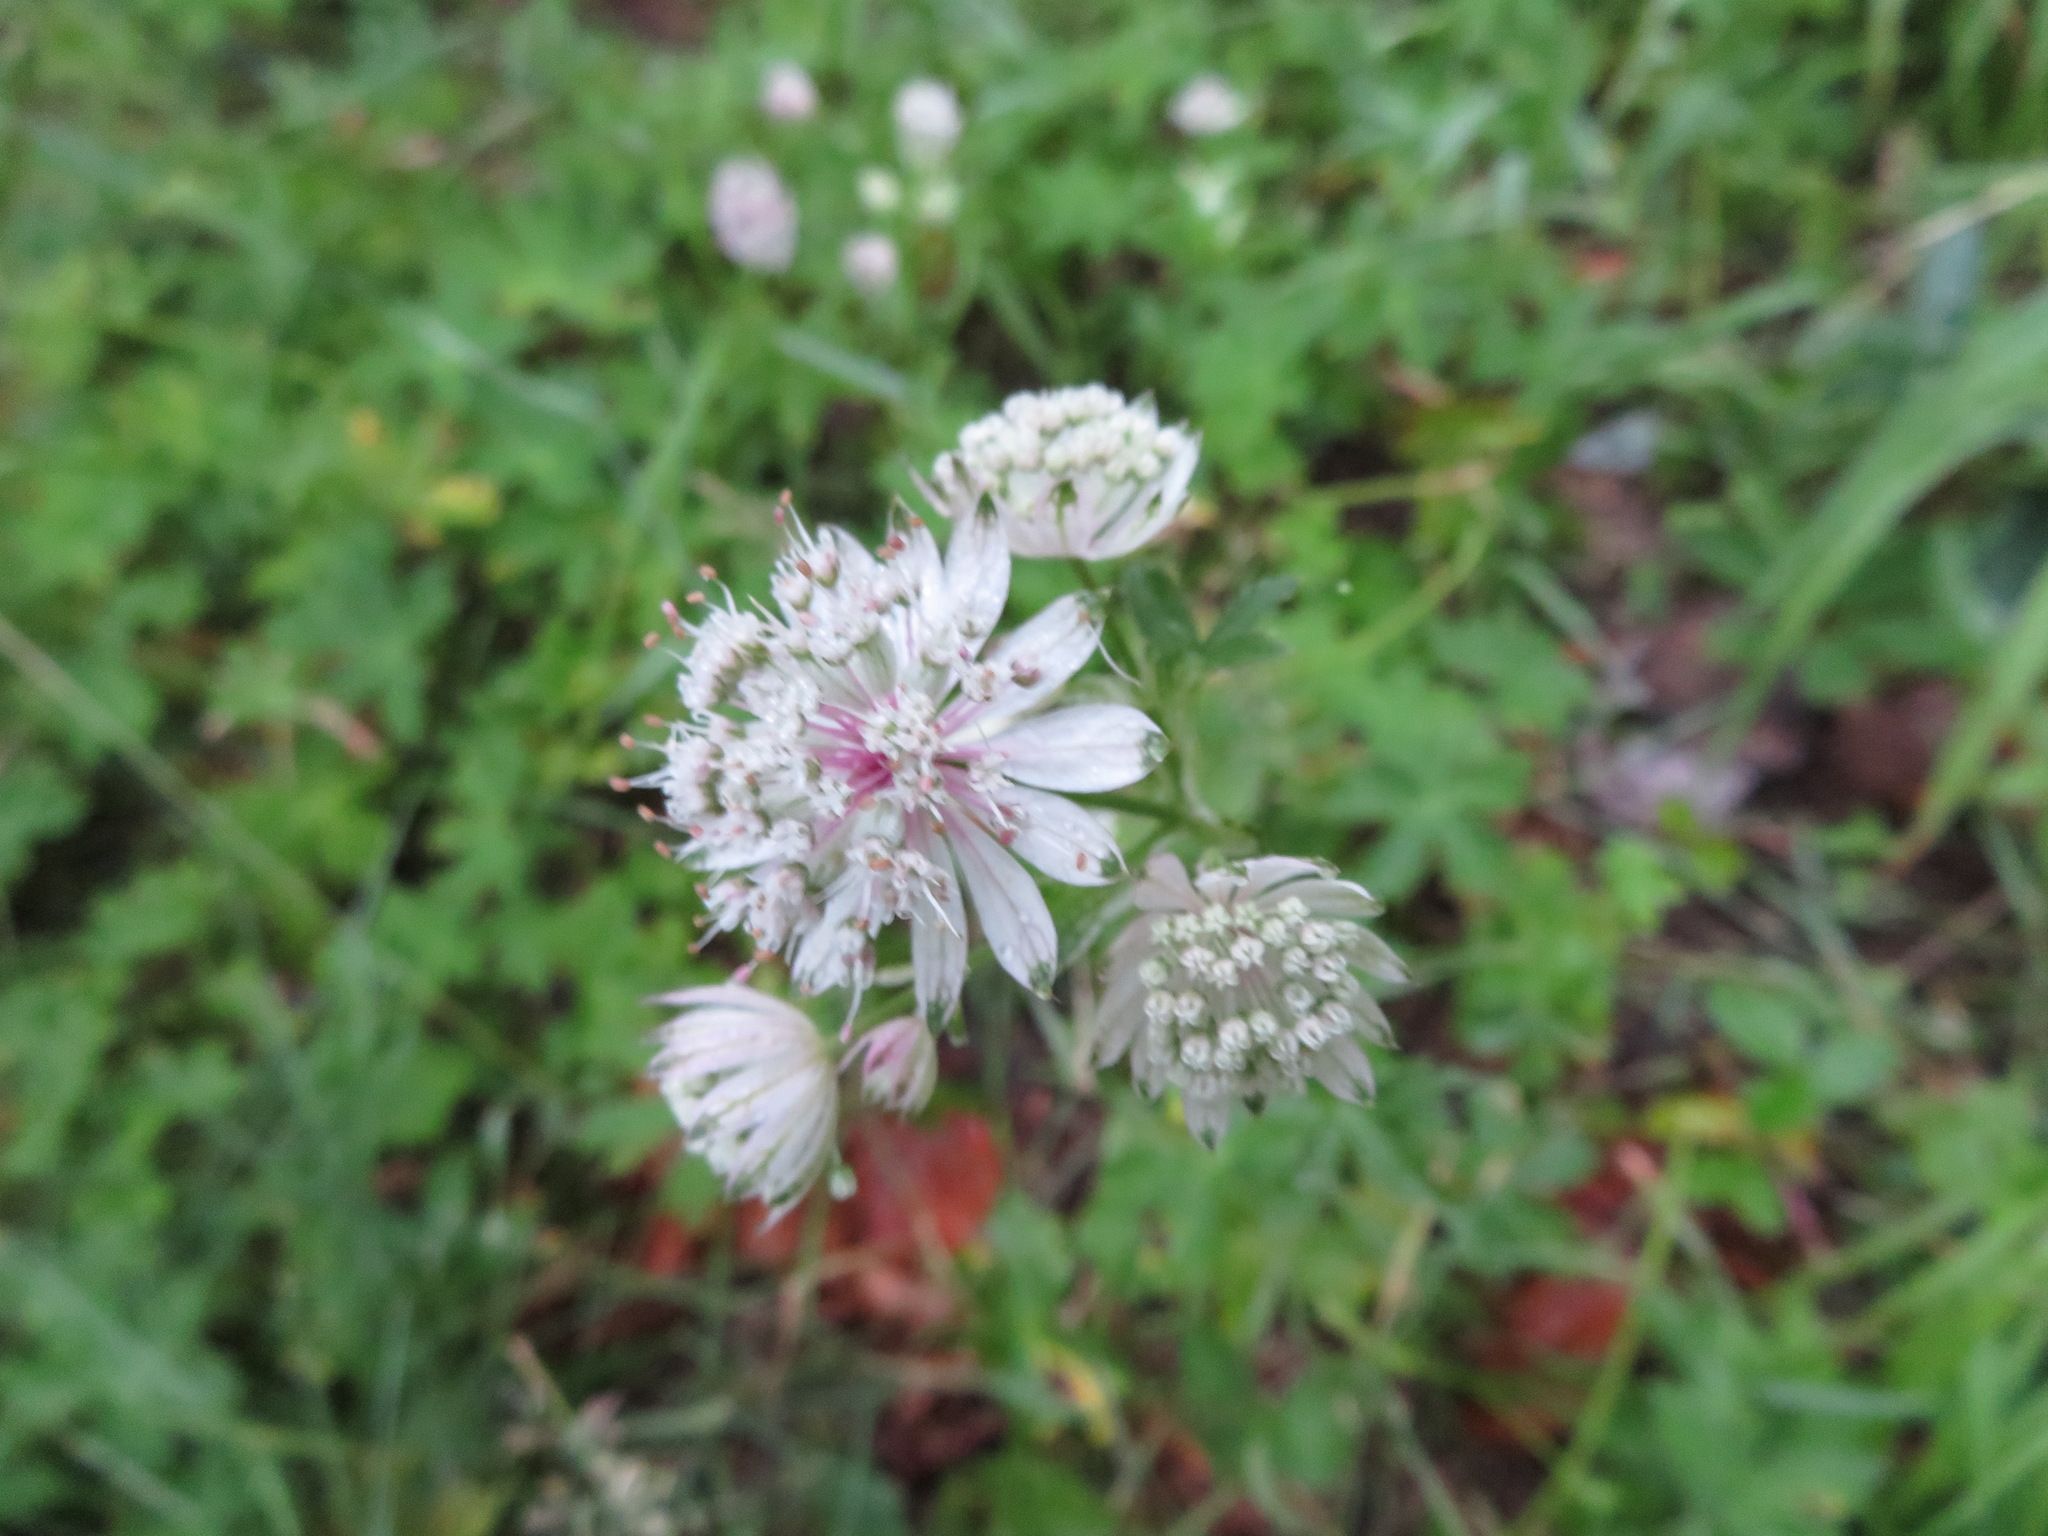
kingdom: Plantae
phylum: Tracheophyta
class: Magnoliopsida
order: Apiales
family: Apiaceae
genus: Astrantia
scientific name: Astrantia major
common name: Greater masterwort
